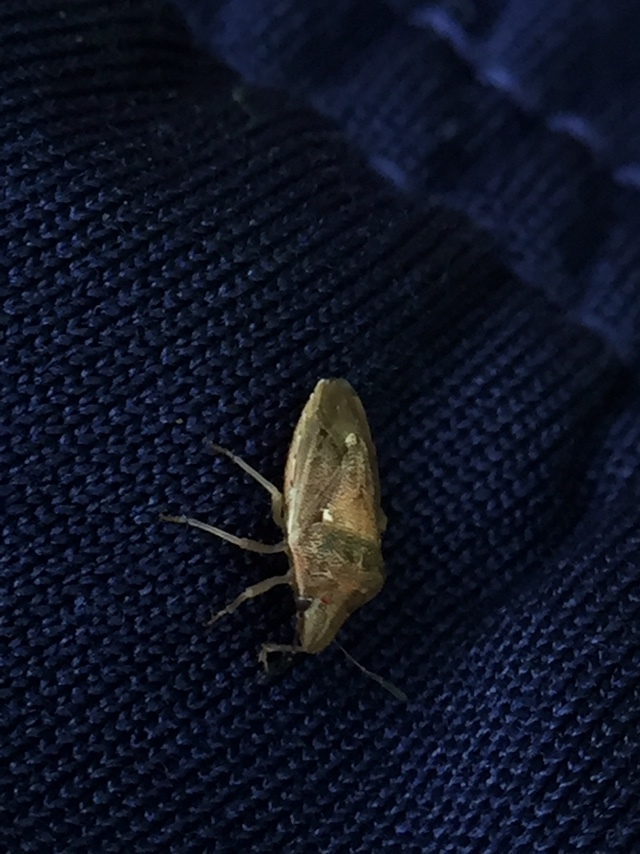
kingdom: Animalia
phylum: Arthropoda
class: Insecta
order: Hemiptera
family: Pentatomidae
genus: Adria
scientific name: Adria parvula
